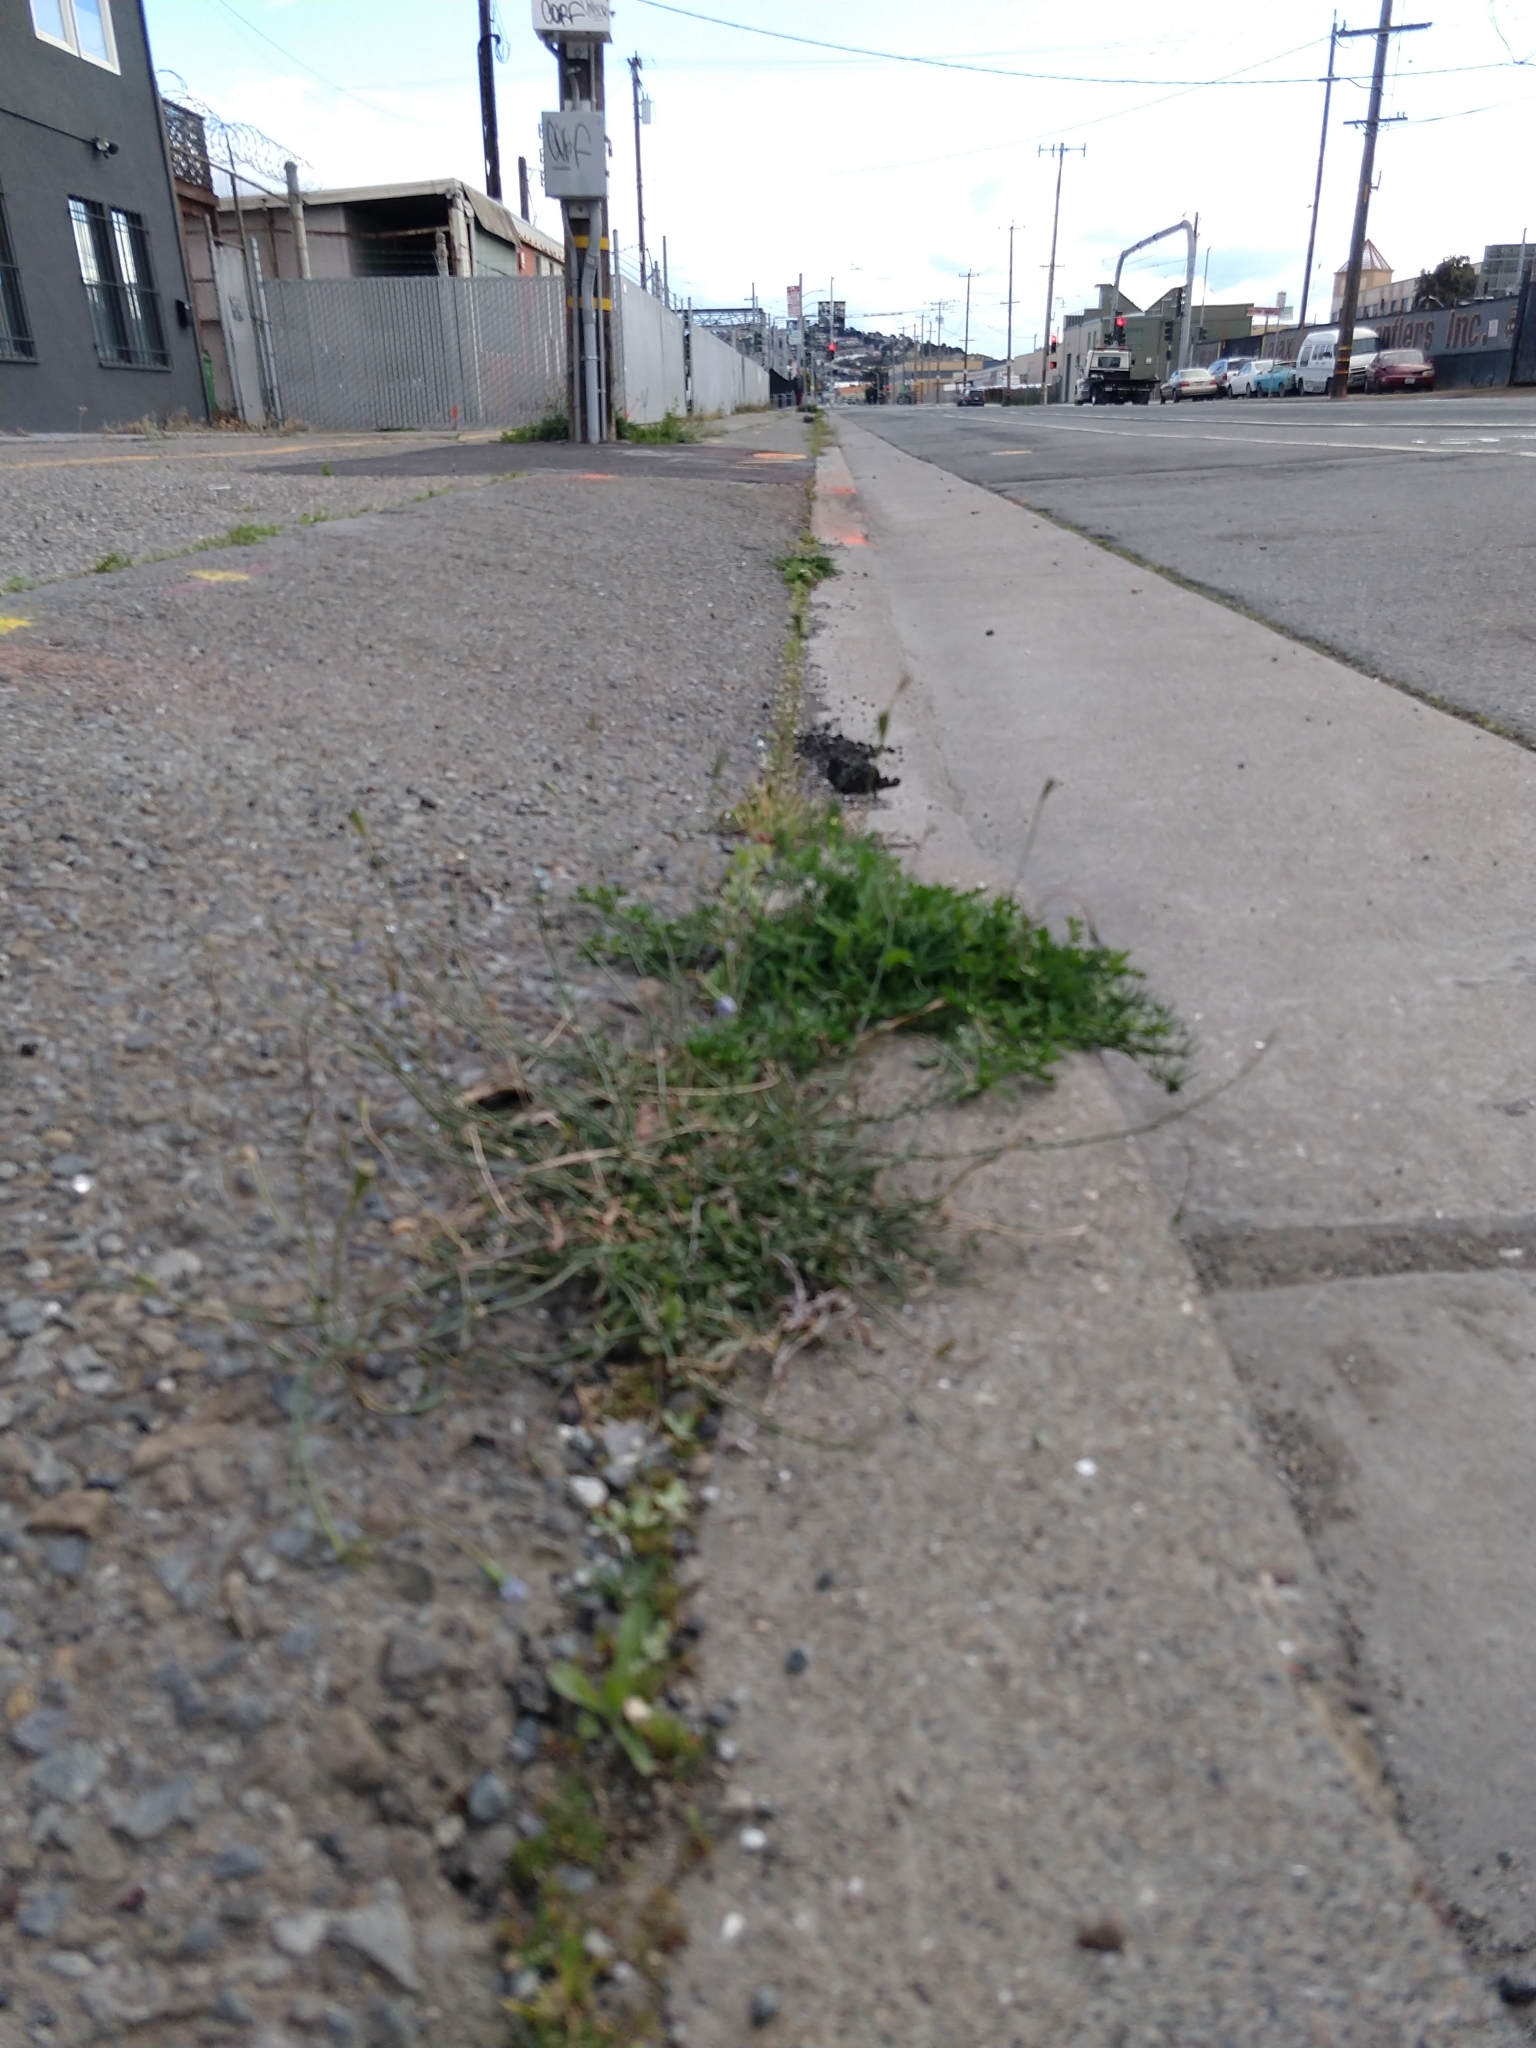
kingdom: Plantae
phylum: Tracheophyta
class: Magnoliopsida
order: Asterales
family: Campanulaceae
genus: Wahlenbergia
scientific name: Wahlenbergia marginata
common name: Southern rockbell
